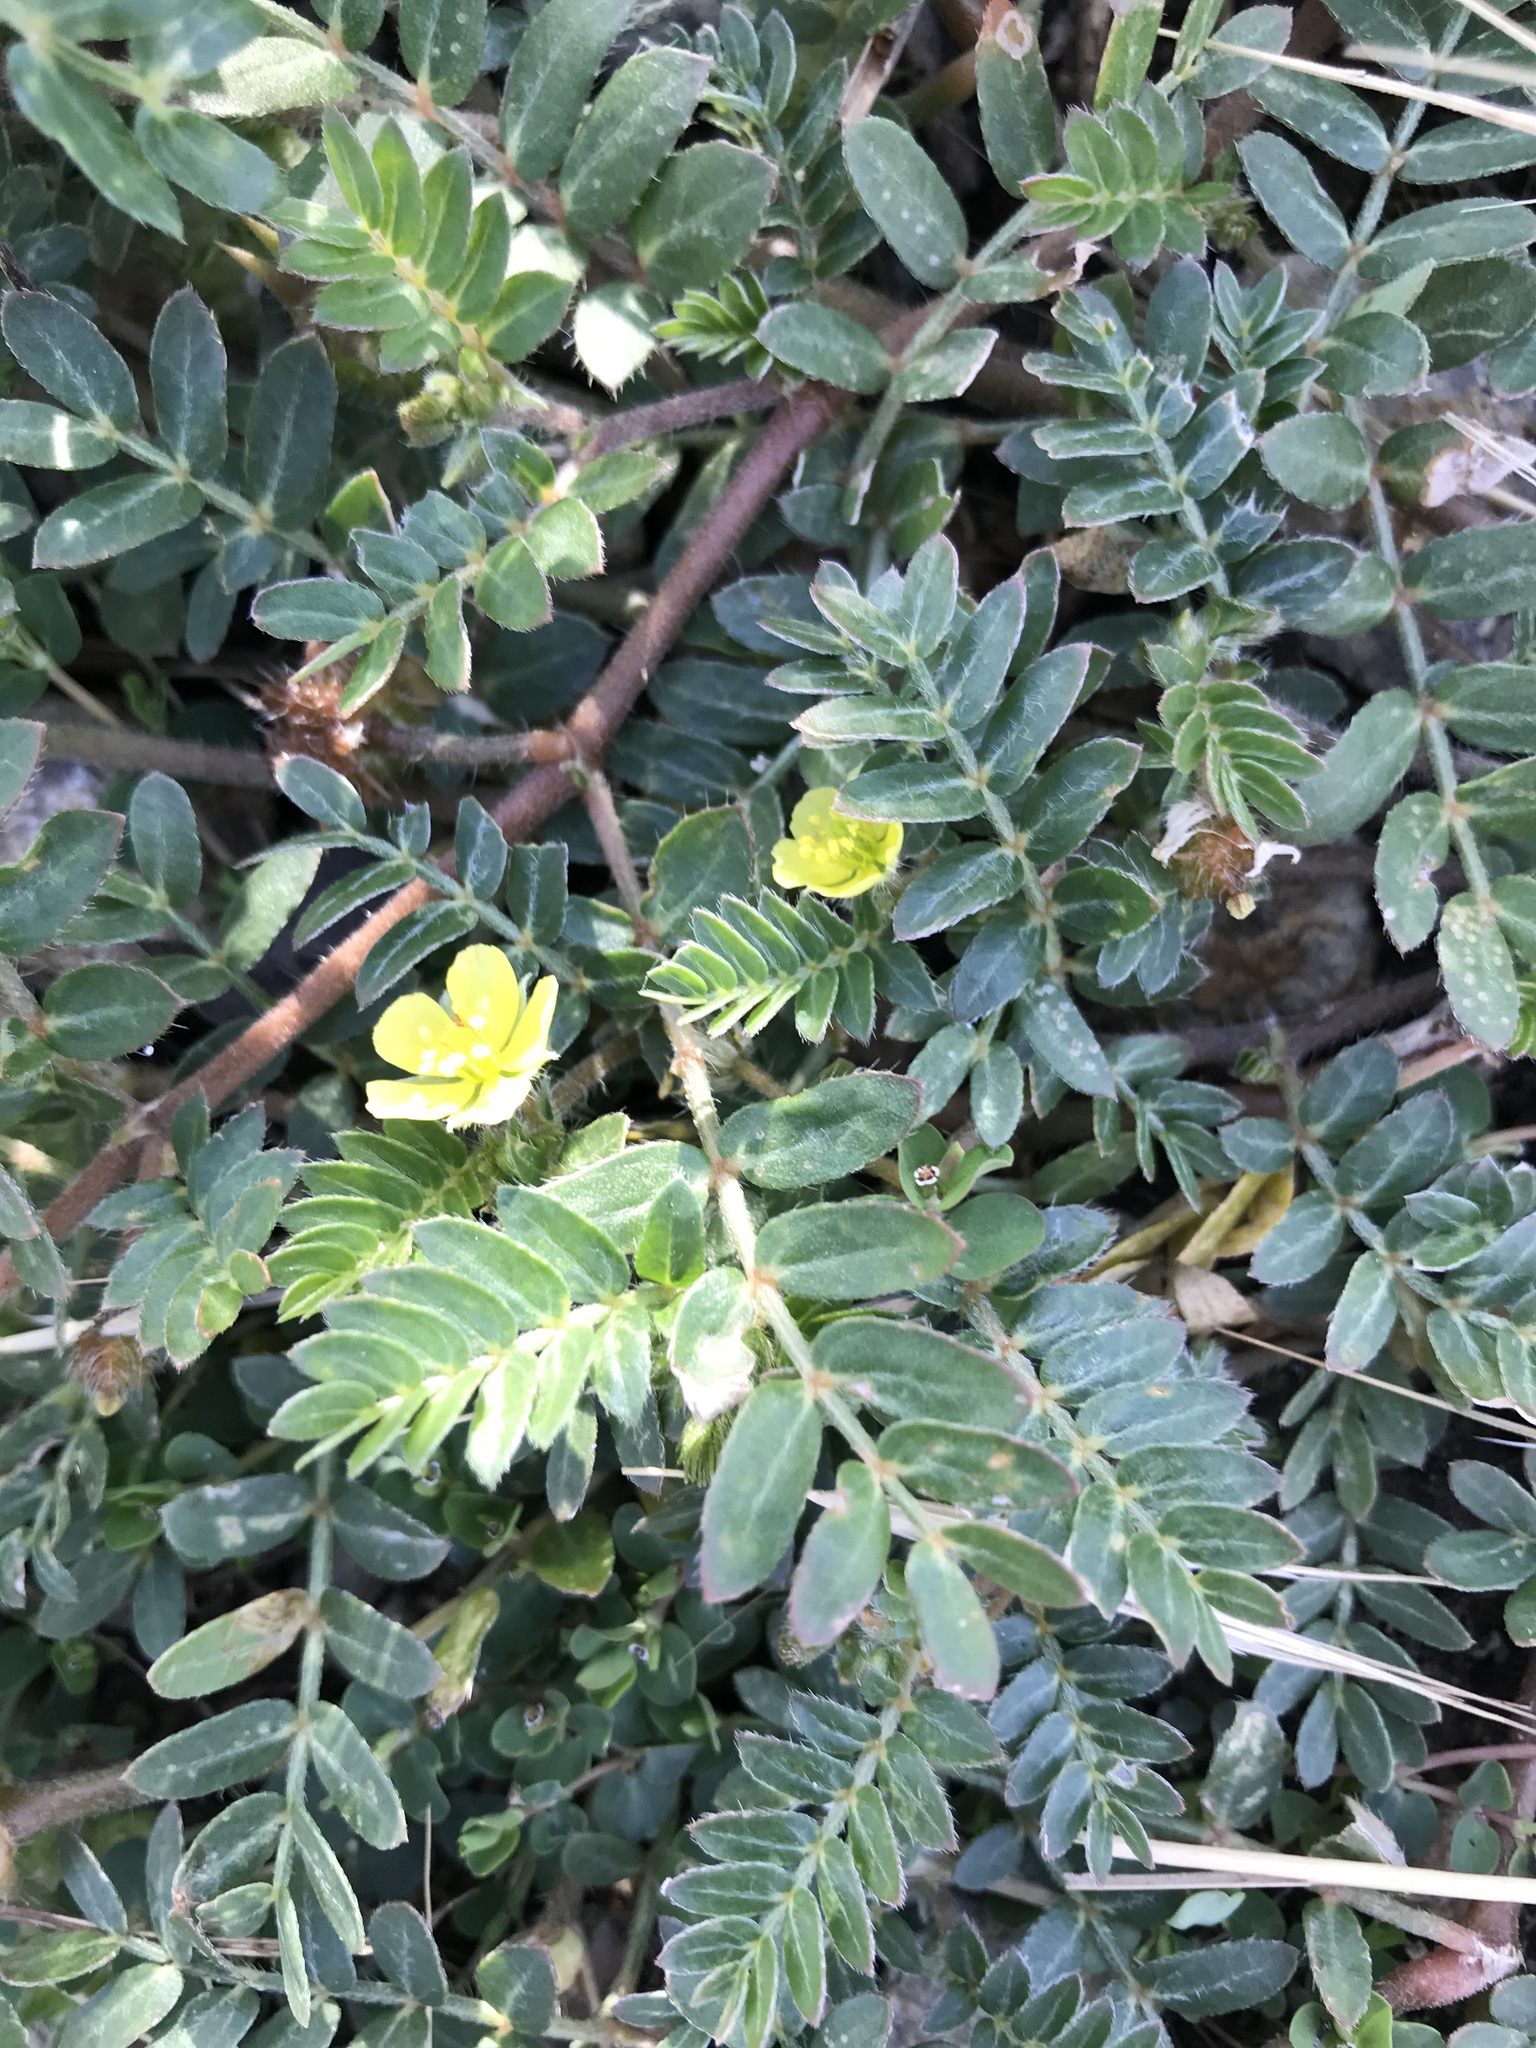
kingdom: Plantae
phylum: Tracheophyta
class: Magnoliopsida
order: Zygophyllales
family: Zygophyllaceae
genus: Tribulus
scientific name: Tribulus terrestris
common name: Puncturevine
